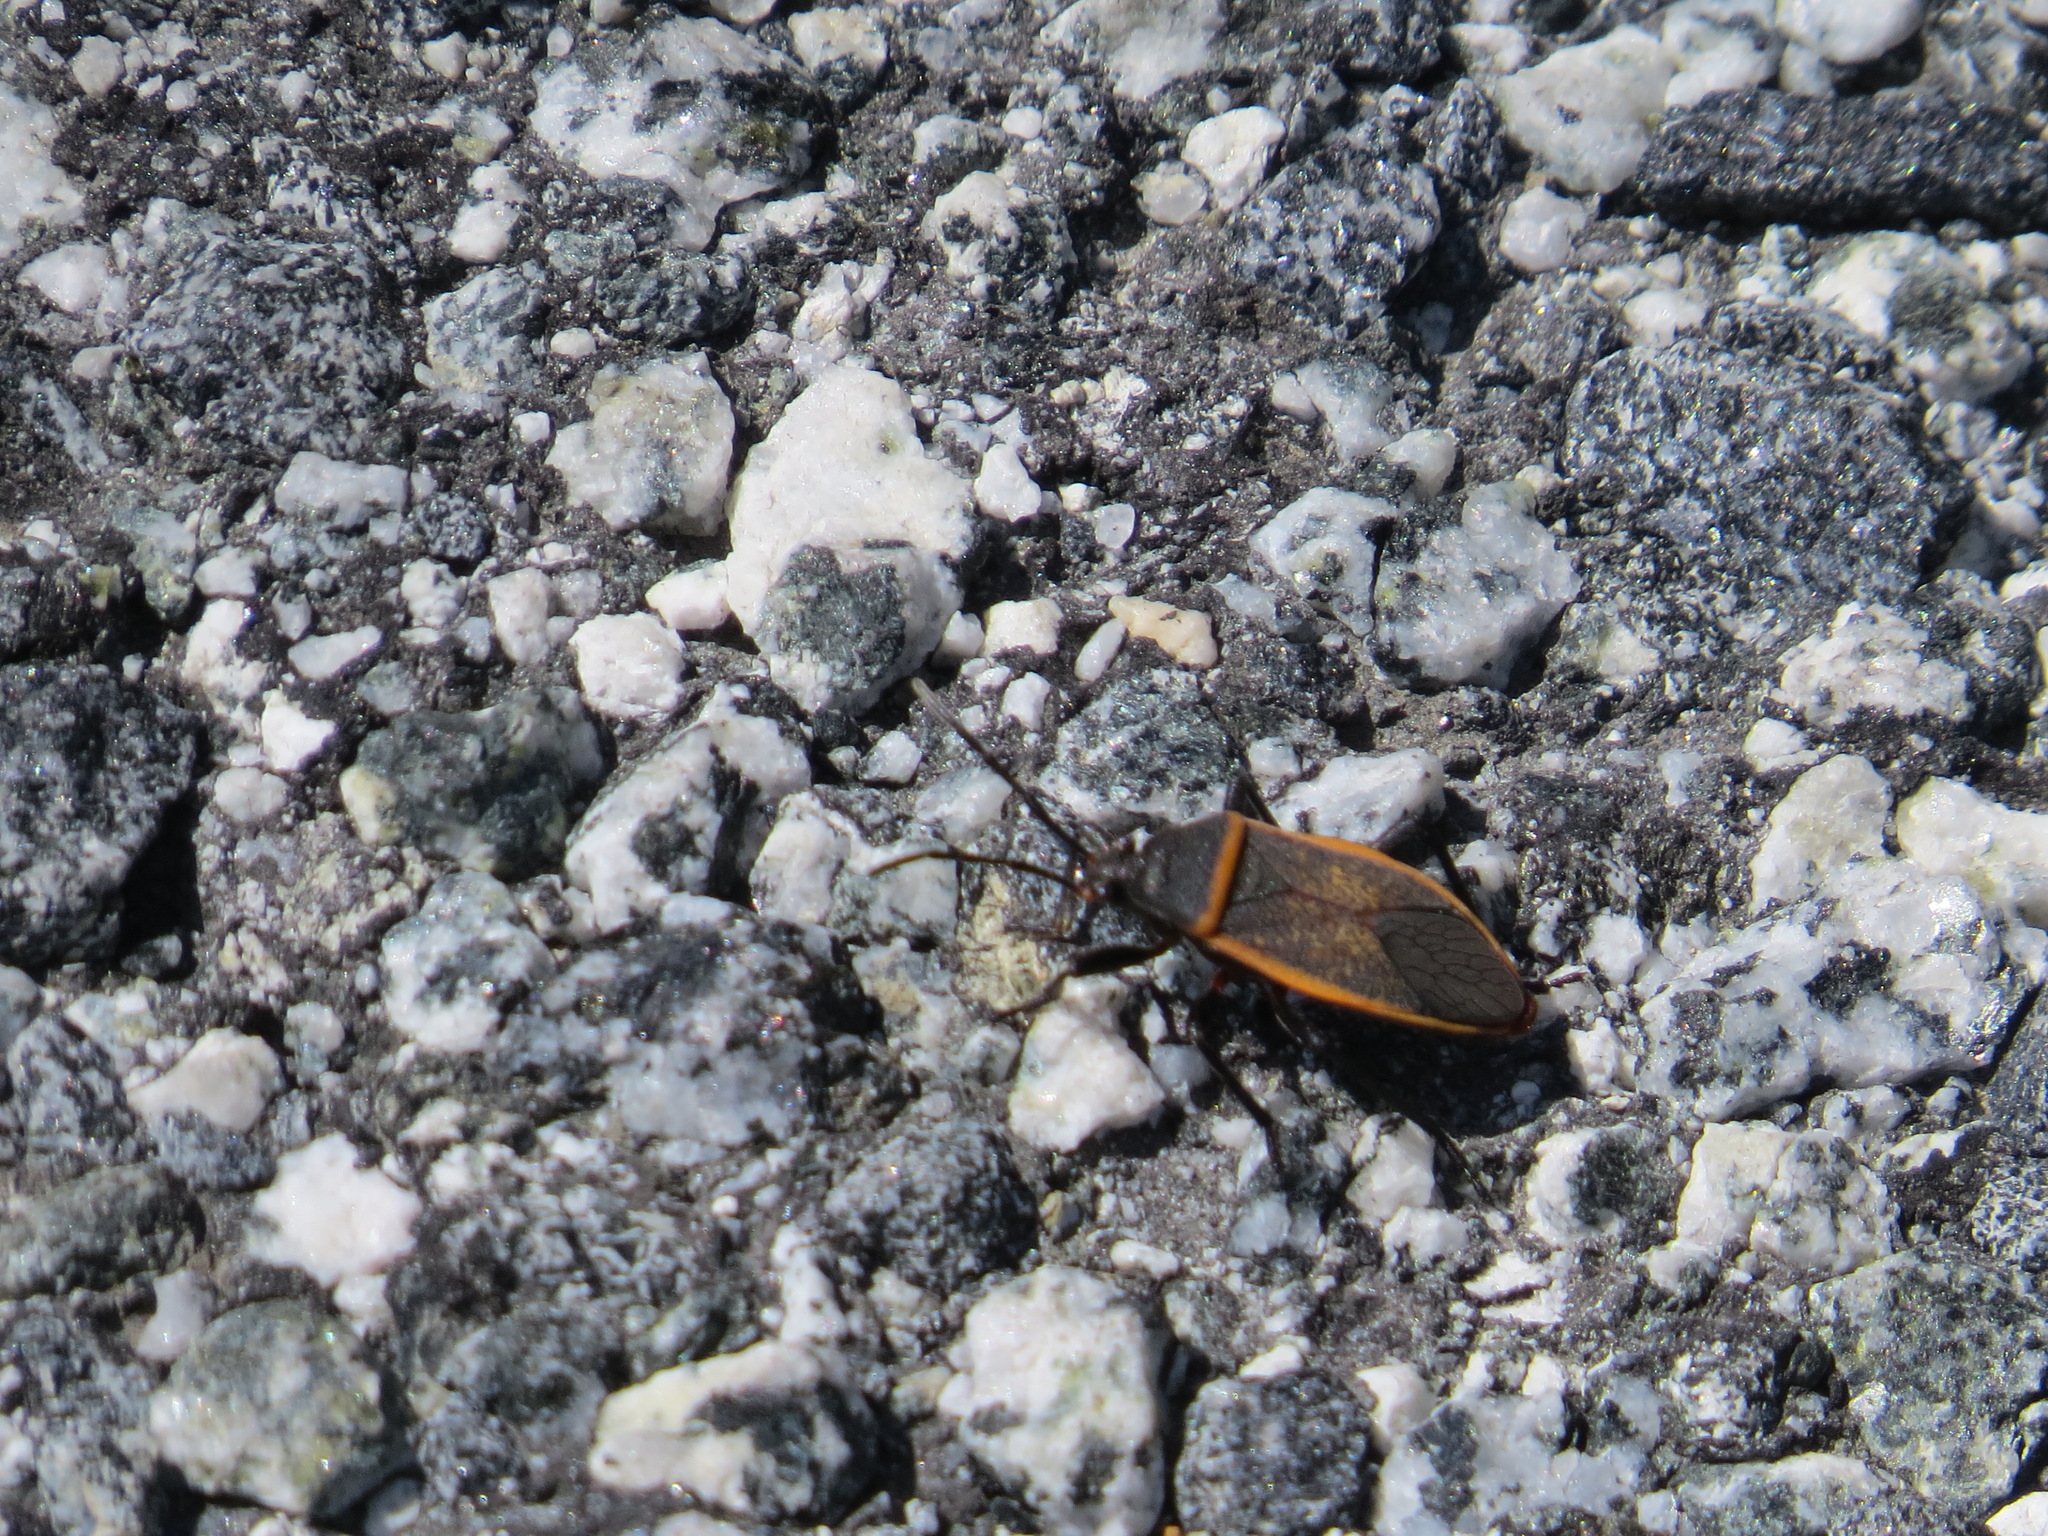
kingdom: Animalia
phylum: Arthropoda
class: Insecta
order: Hemiptera
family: Largidae
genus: Largus
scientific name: Largus californicus
